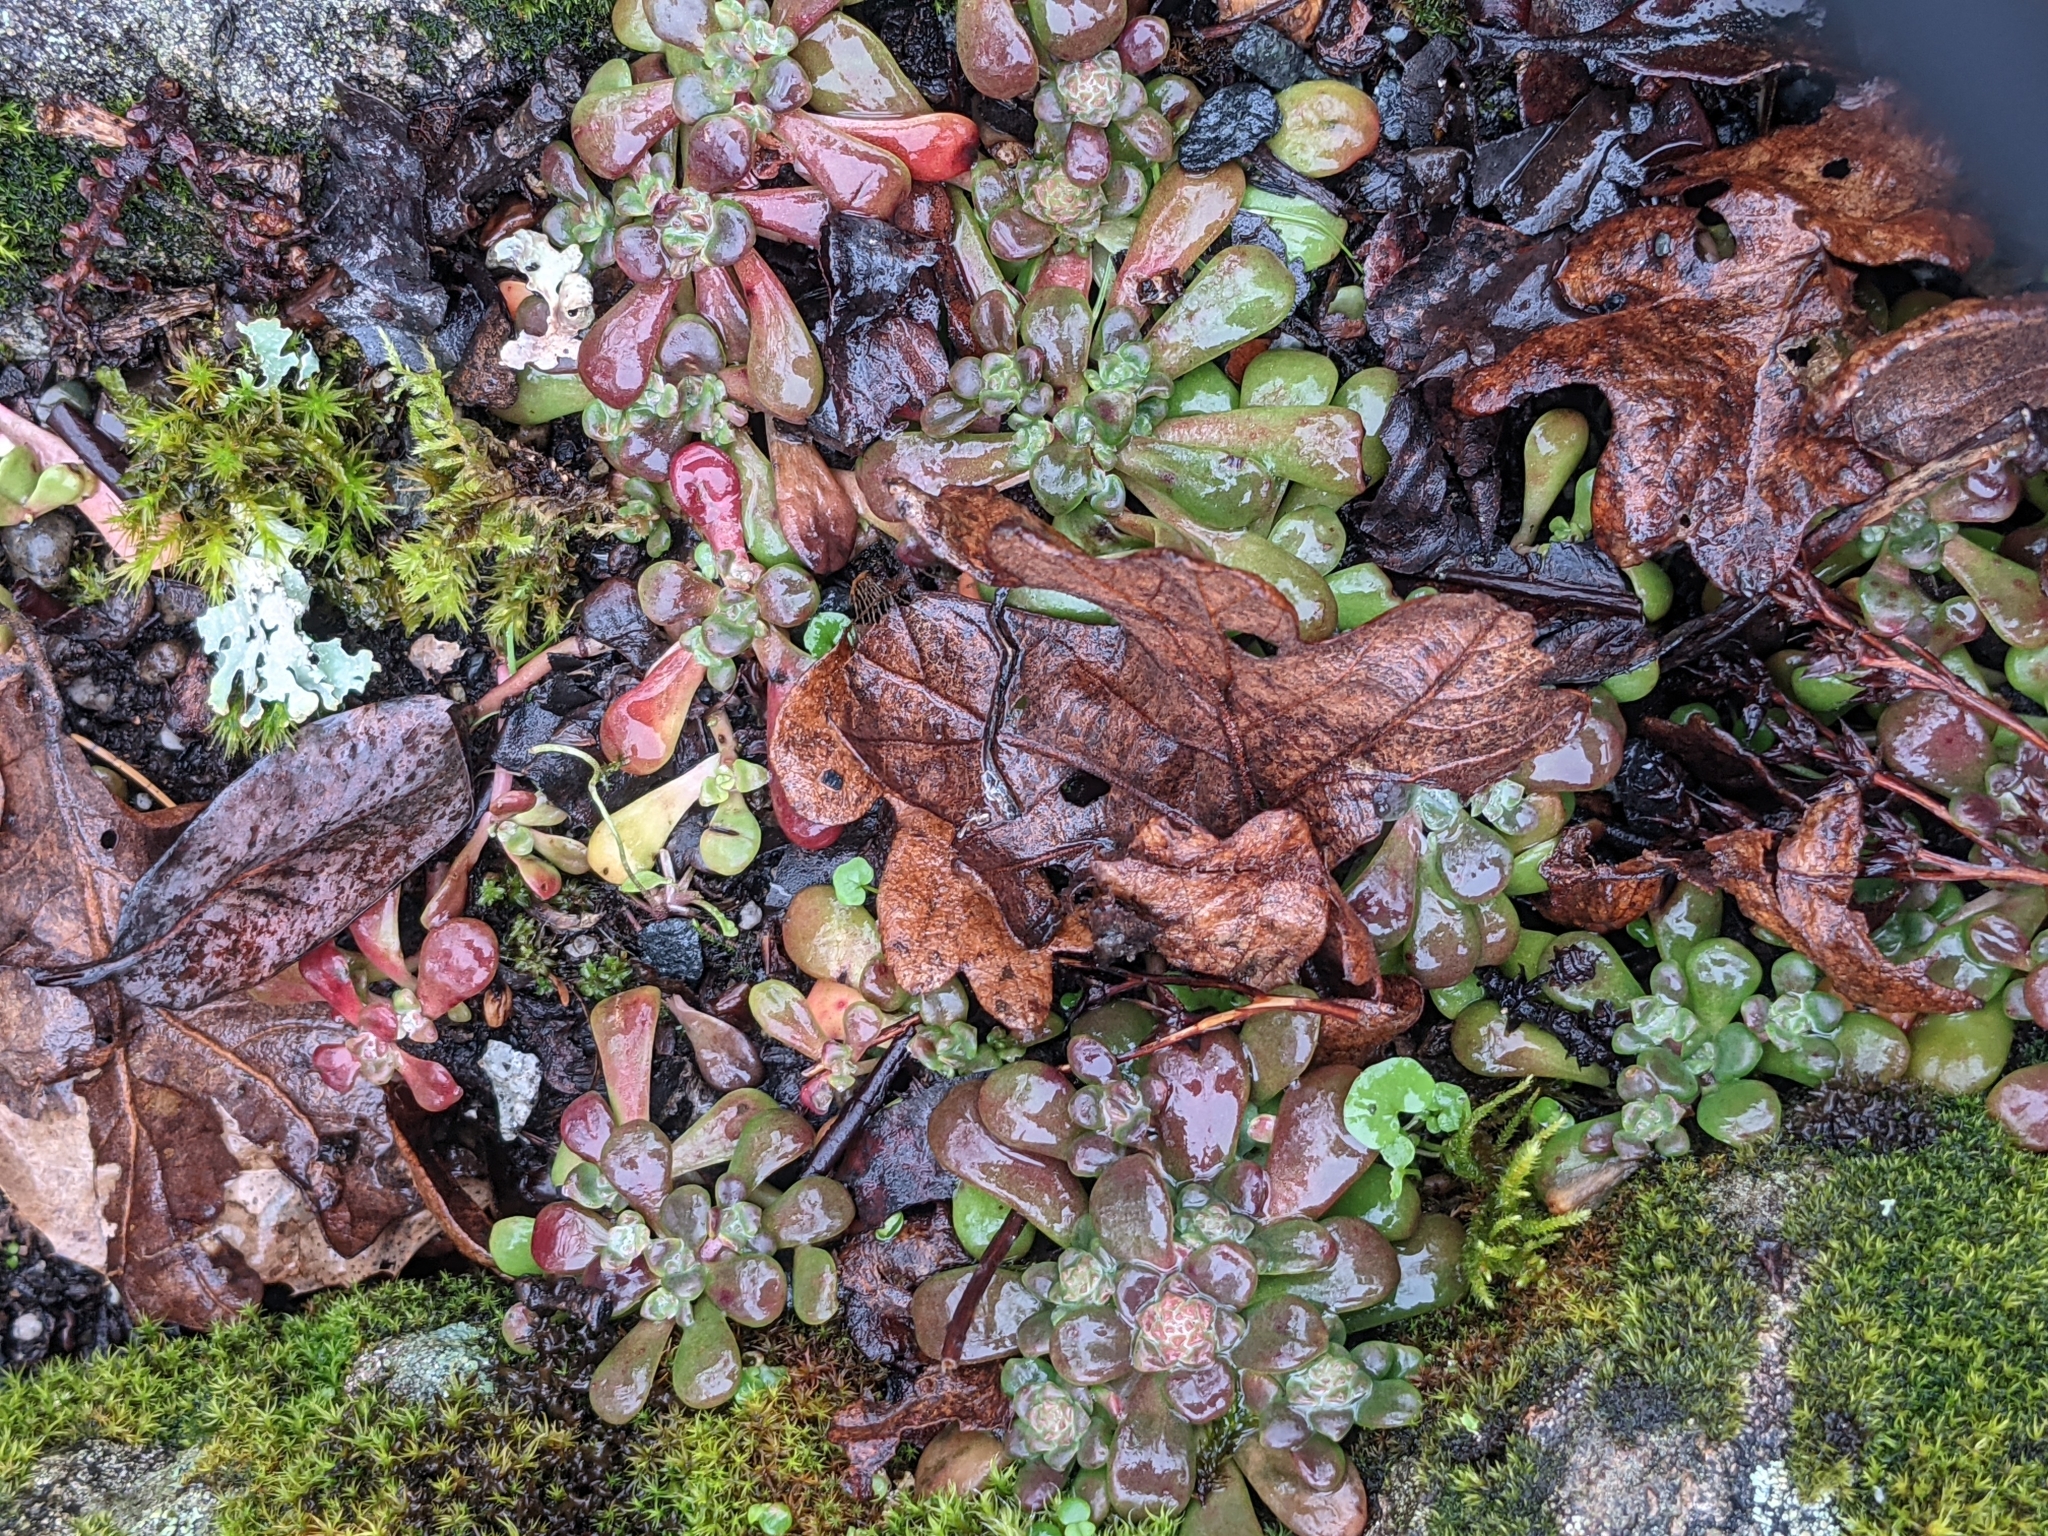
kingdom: Plantae
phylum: Tracheophyta
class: Magnoliopsida
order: Saxifragales
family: Crassulaceae
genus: Sedum
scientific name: Sedum spathulifolium
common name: Colorado stonecrop
